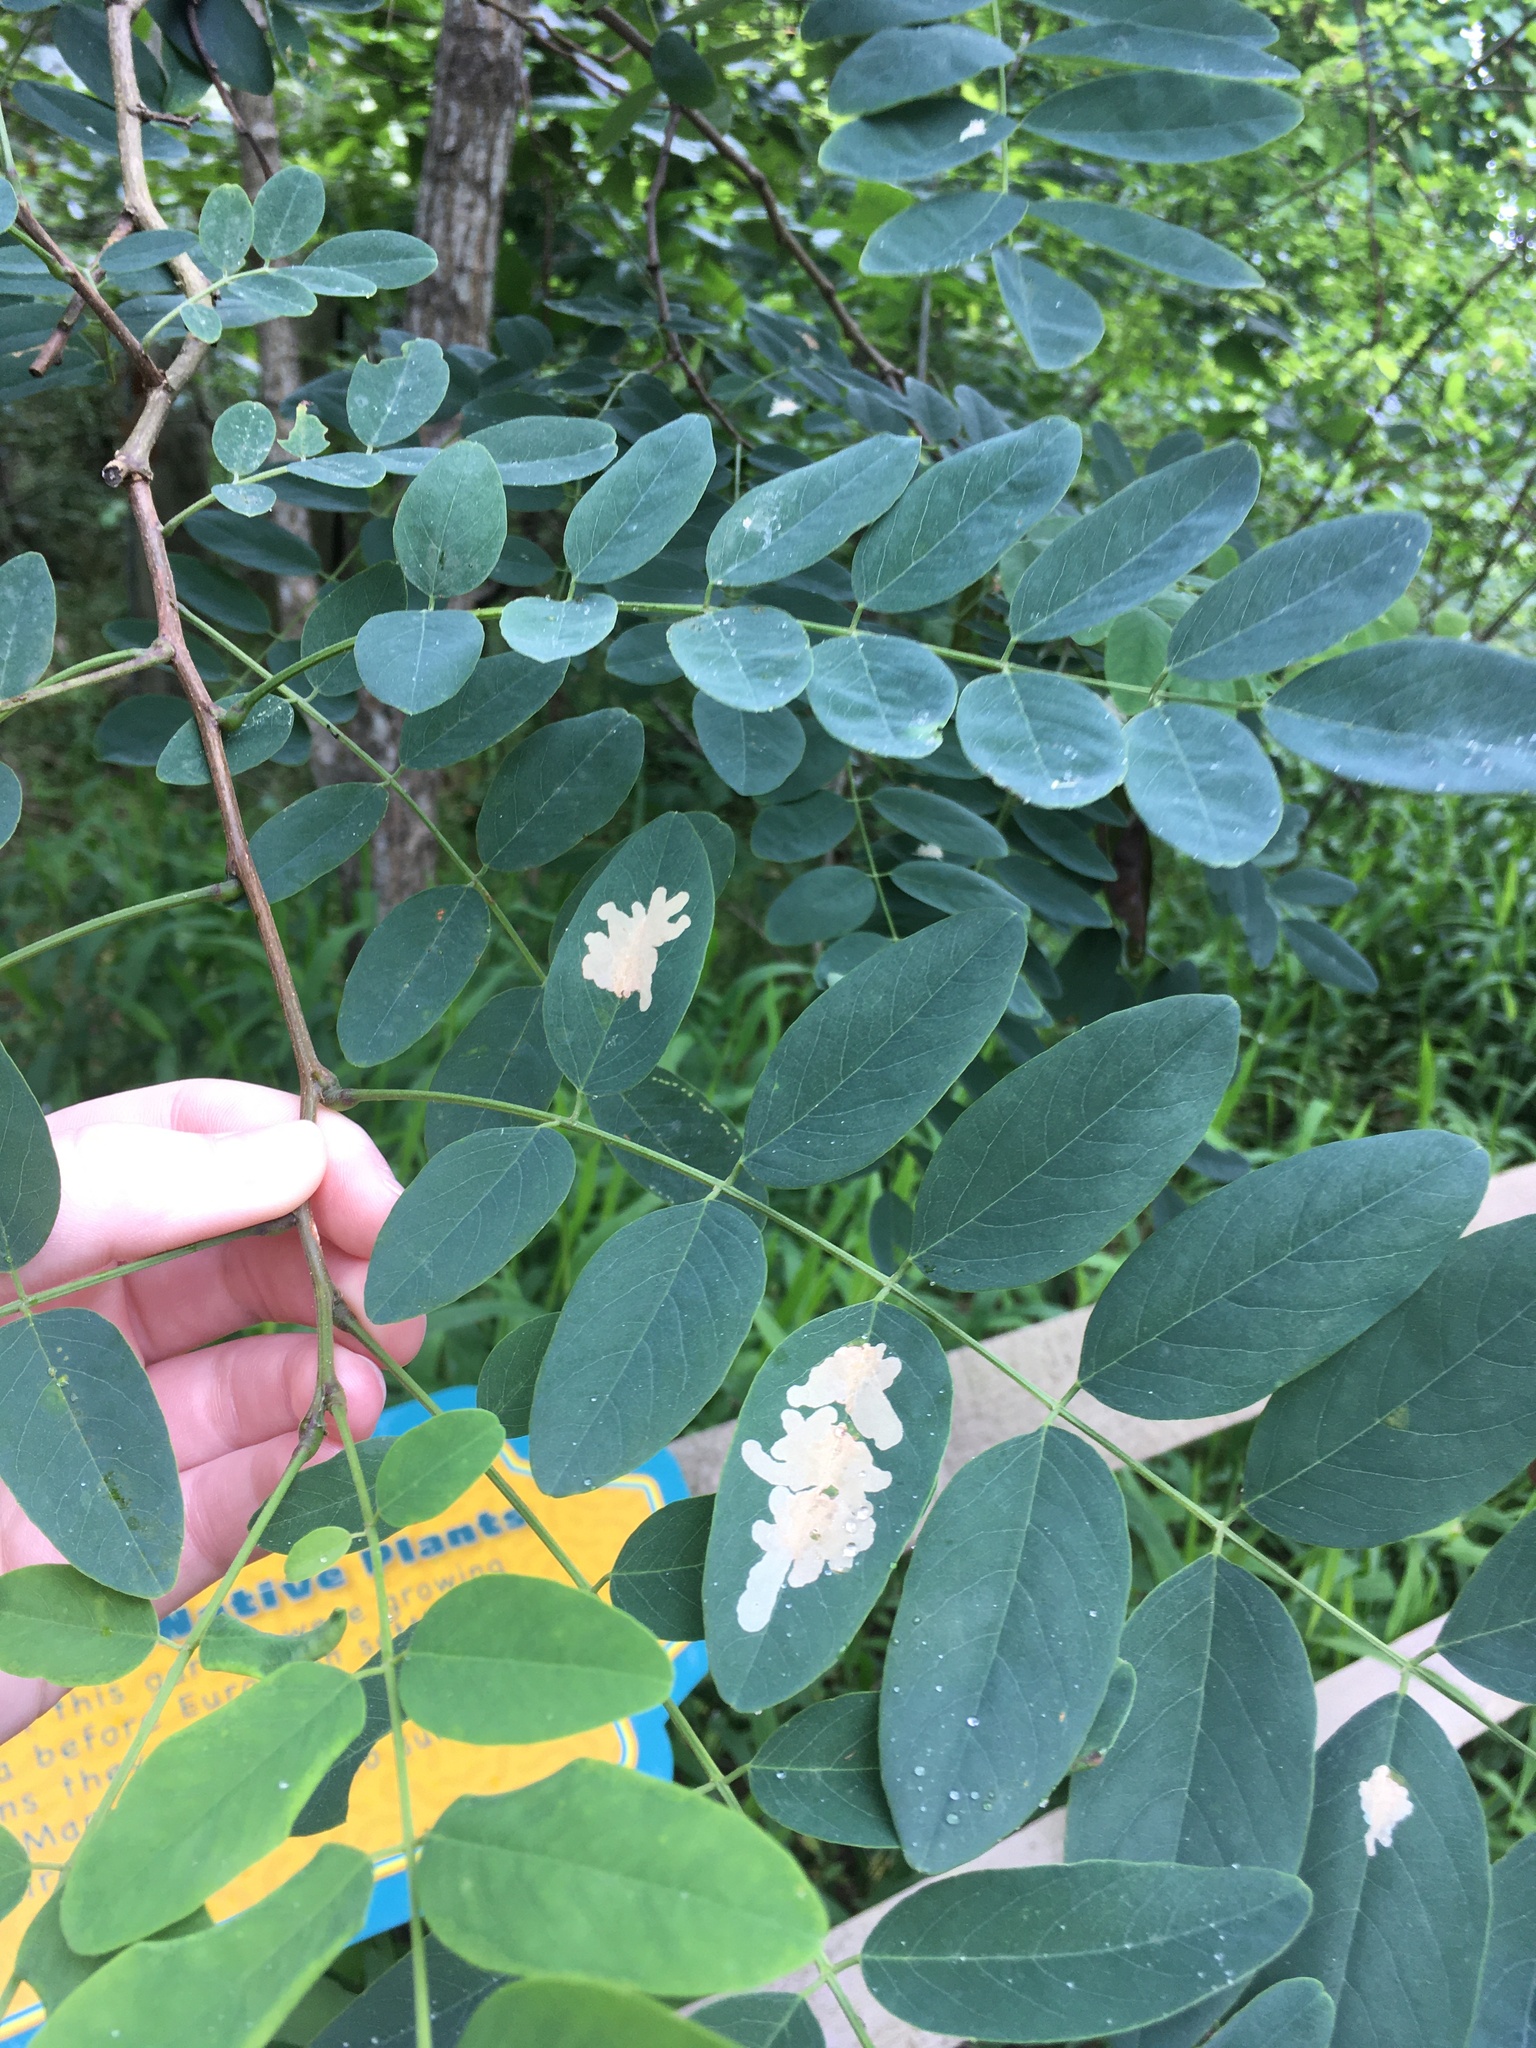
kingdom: Animalia
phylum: Arthropoda
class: Insecta
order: Lepidoptera
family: Gracillariidae
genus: Parectopa
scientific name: Parectopa robiniella
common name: Locust digitate leafminer
